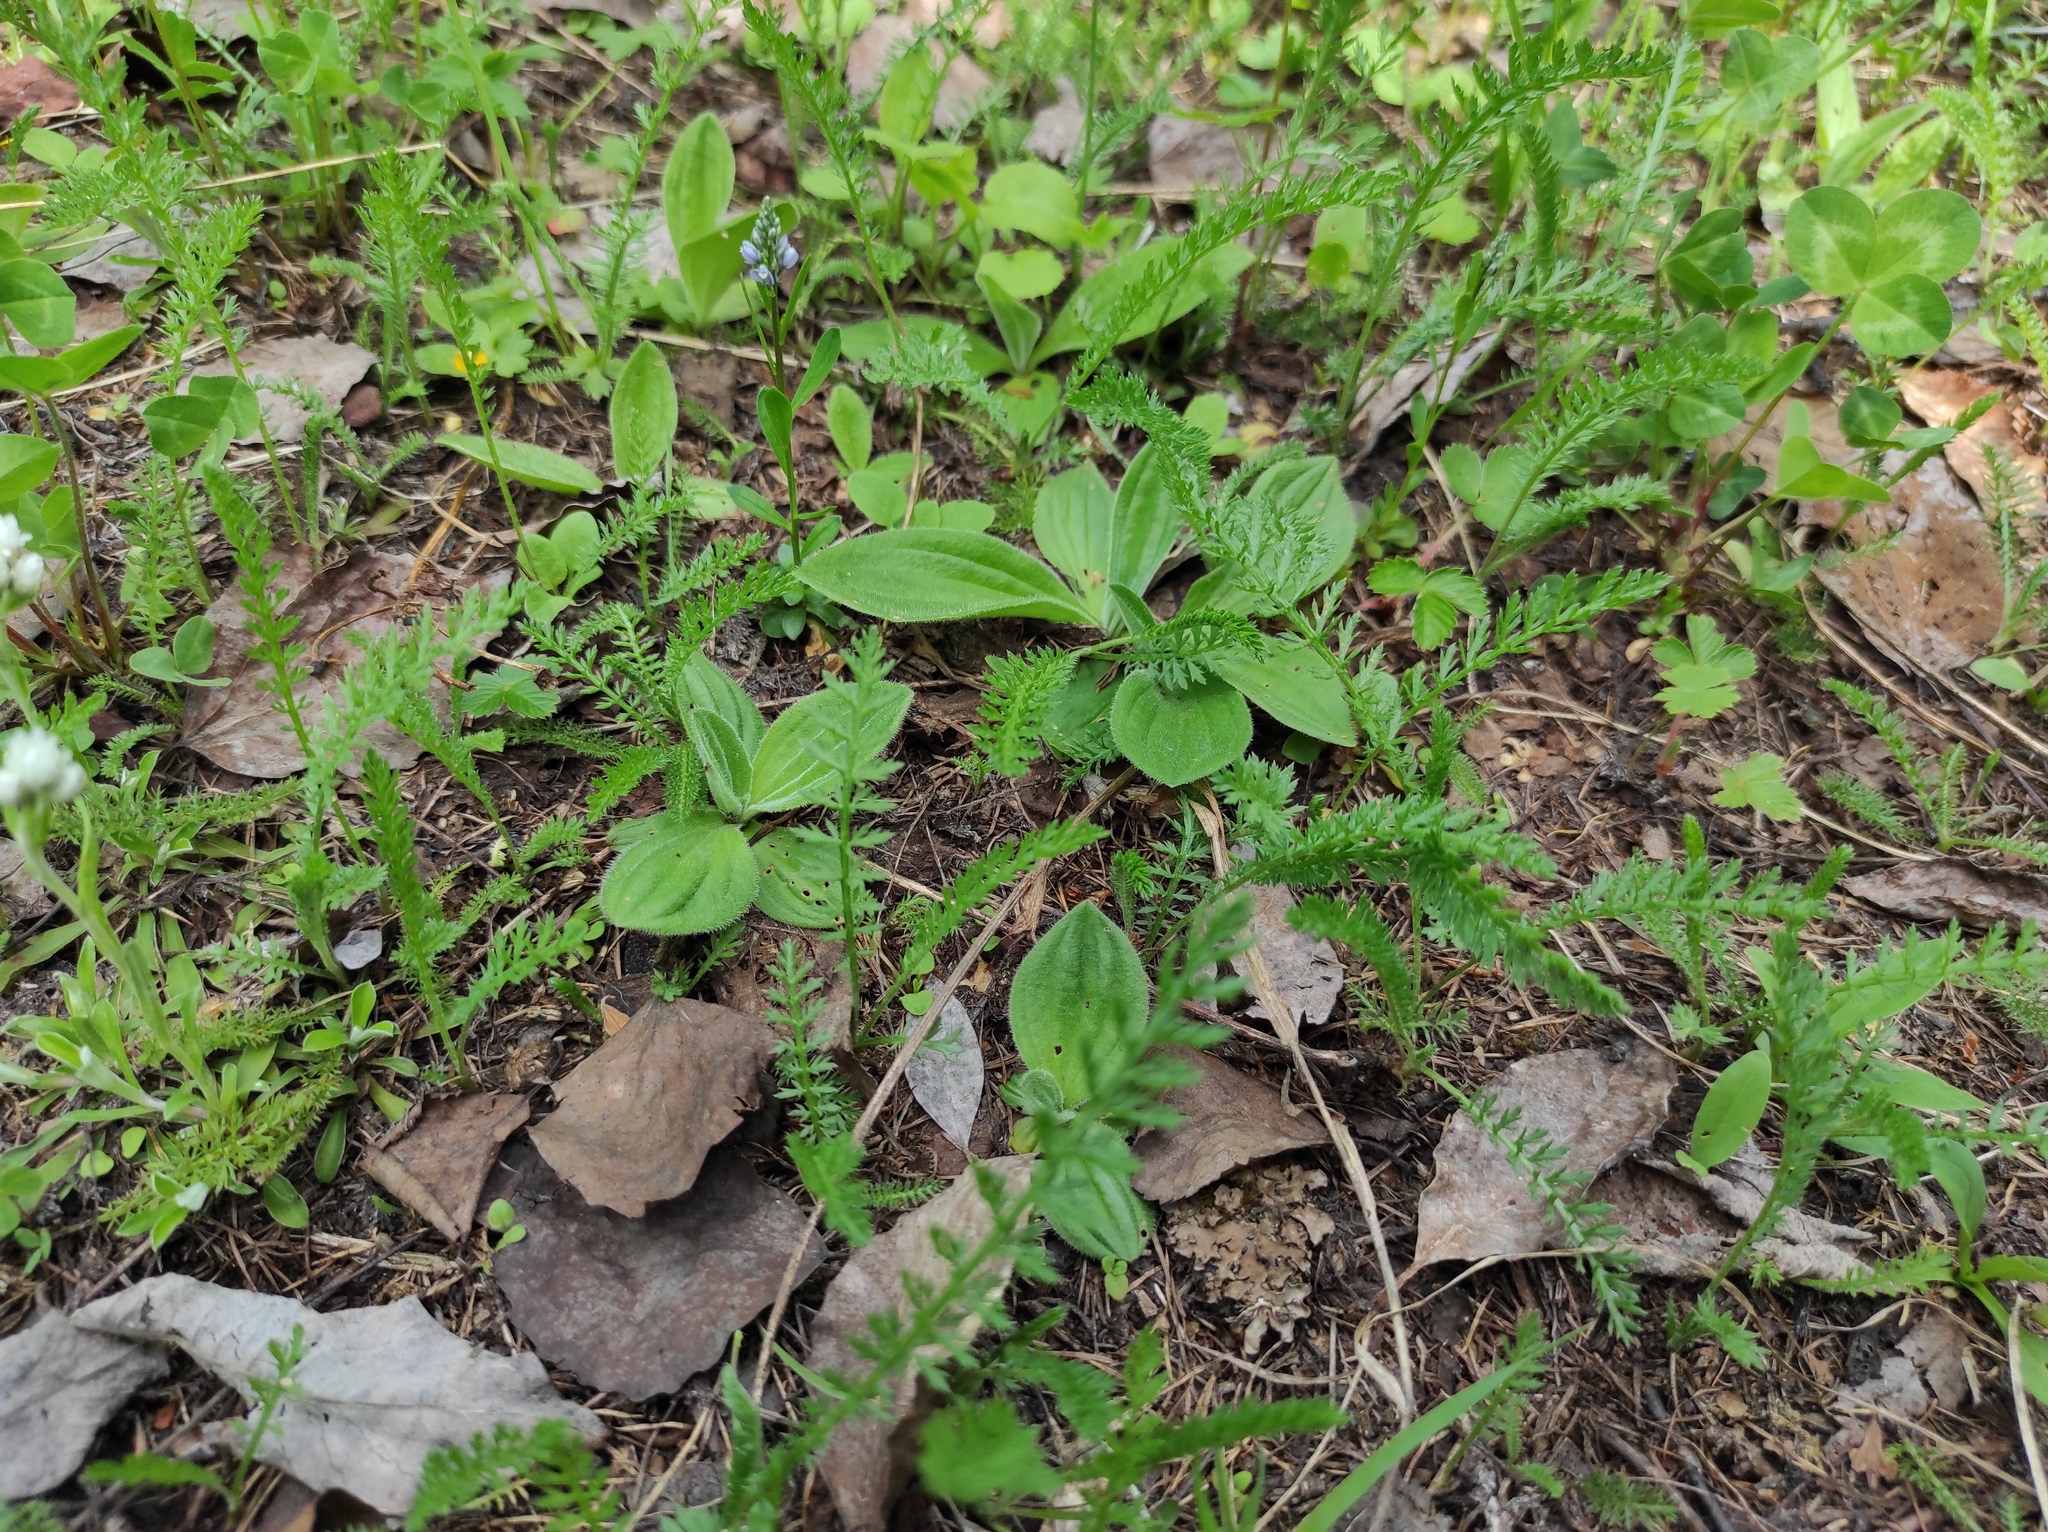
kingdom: Plantae
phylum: Tracheophyta
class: Magnoliopsida
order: Lamiales
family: Plantaginaceae
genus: Plantago
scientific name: Plantago media
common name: Hoary plantain
